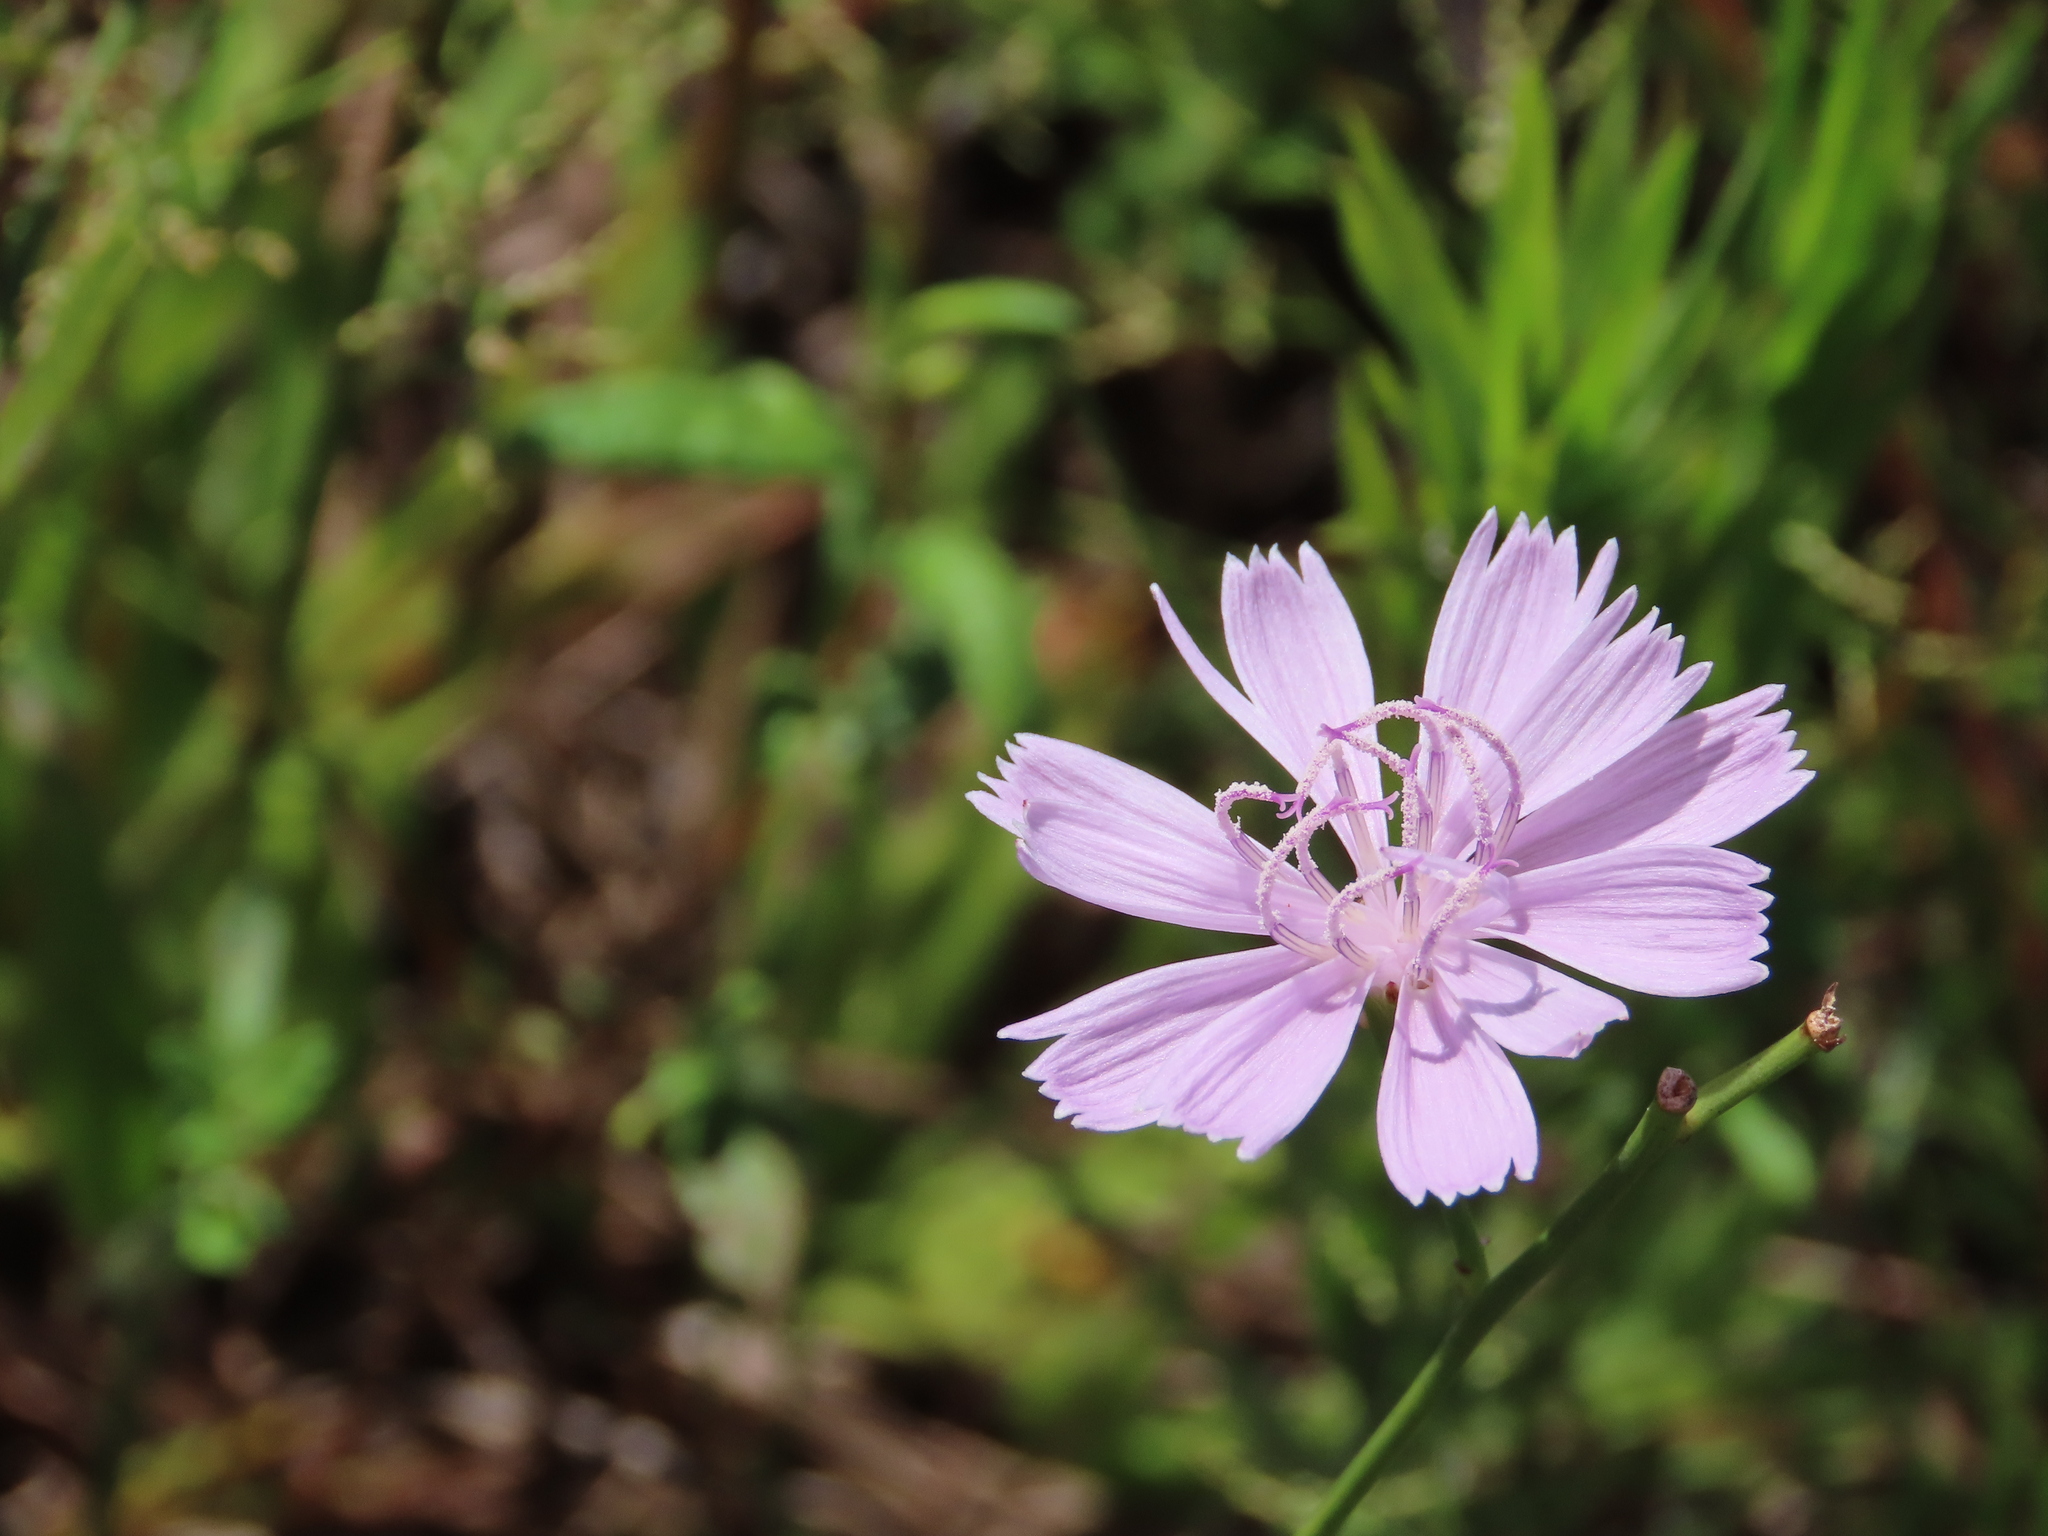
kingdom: Plantae
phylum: Tracheophyta
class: Magnoliopsida
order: Asterales
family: Asteraceae
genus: Lygodesmia
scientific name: Lygodesmia aphylla
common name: Rose-rush
